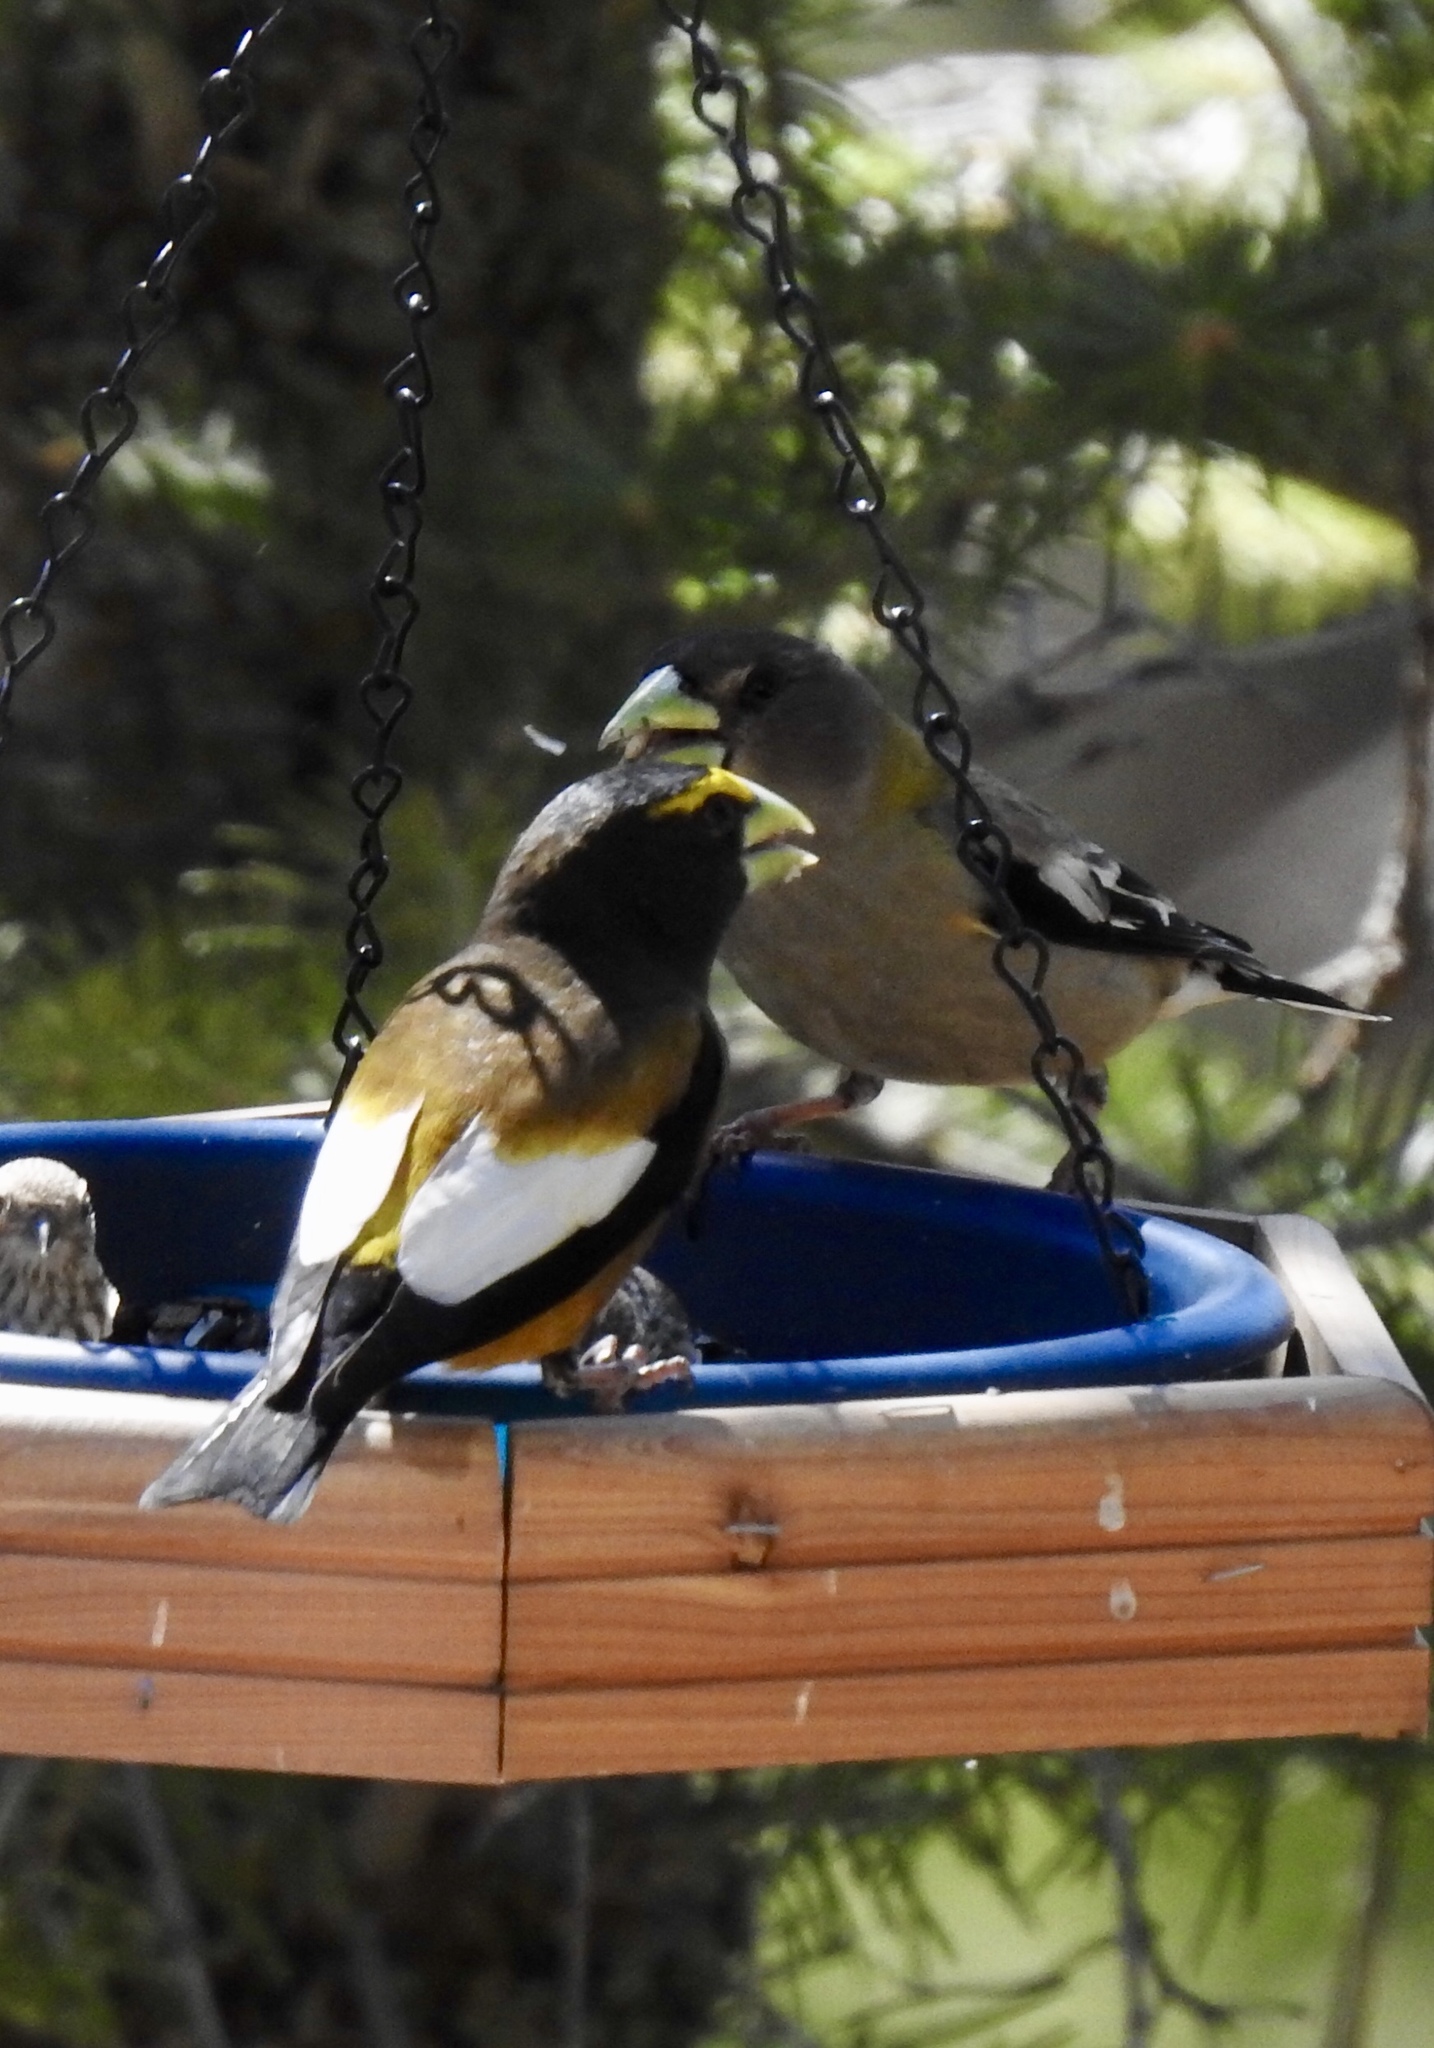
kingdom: Animalia
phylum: Chordata
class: Aves
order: Passeriformes
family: Fringillidae
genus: Hesperiphona
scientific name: Hesperiphona vespertina
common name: Evening grosbeak
